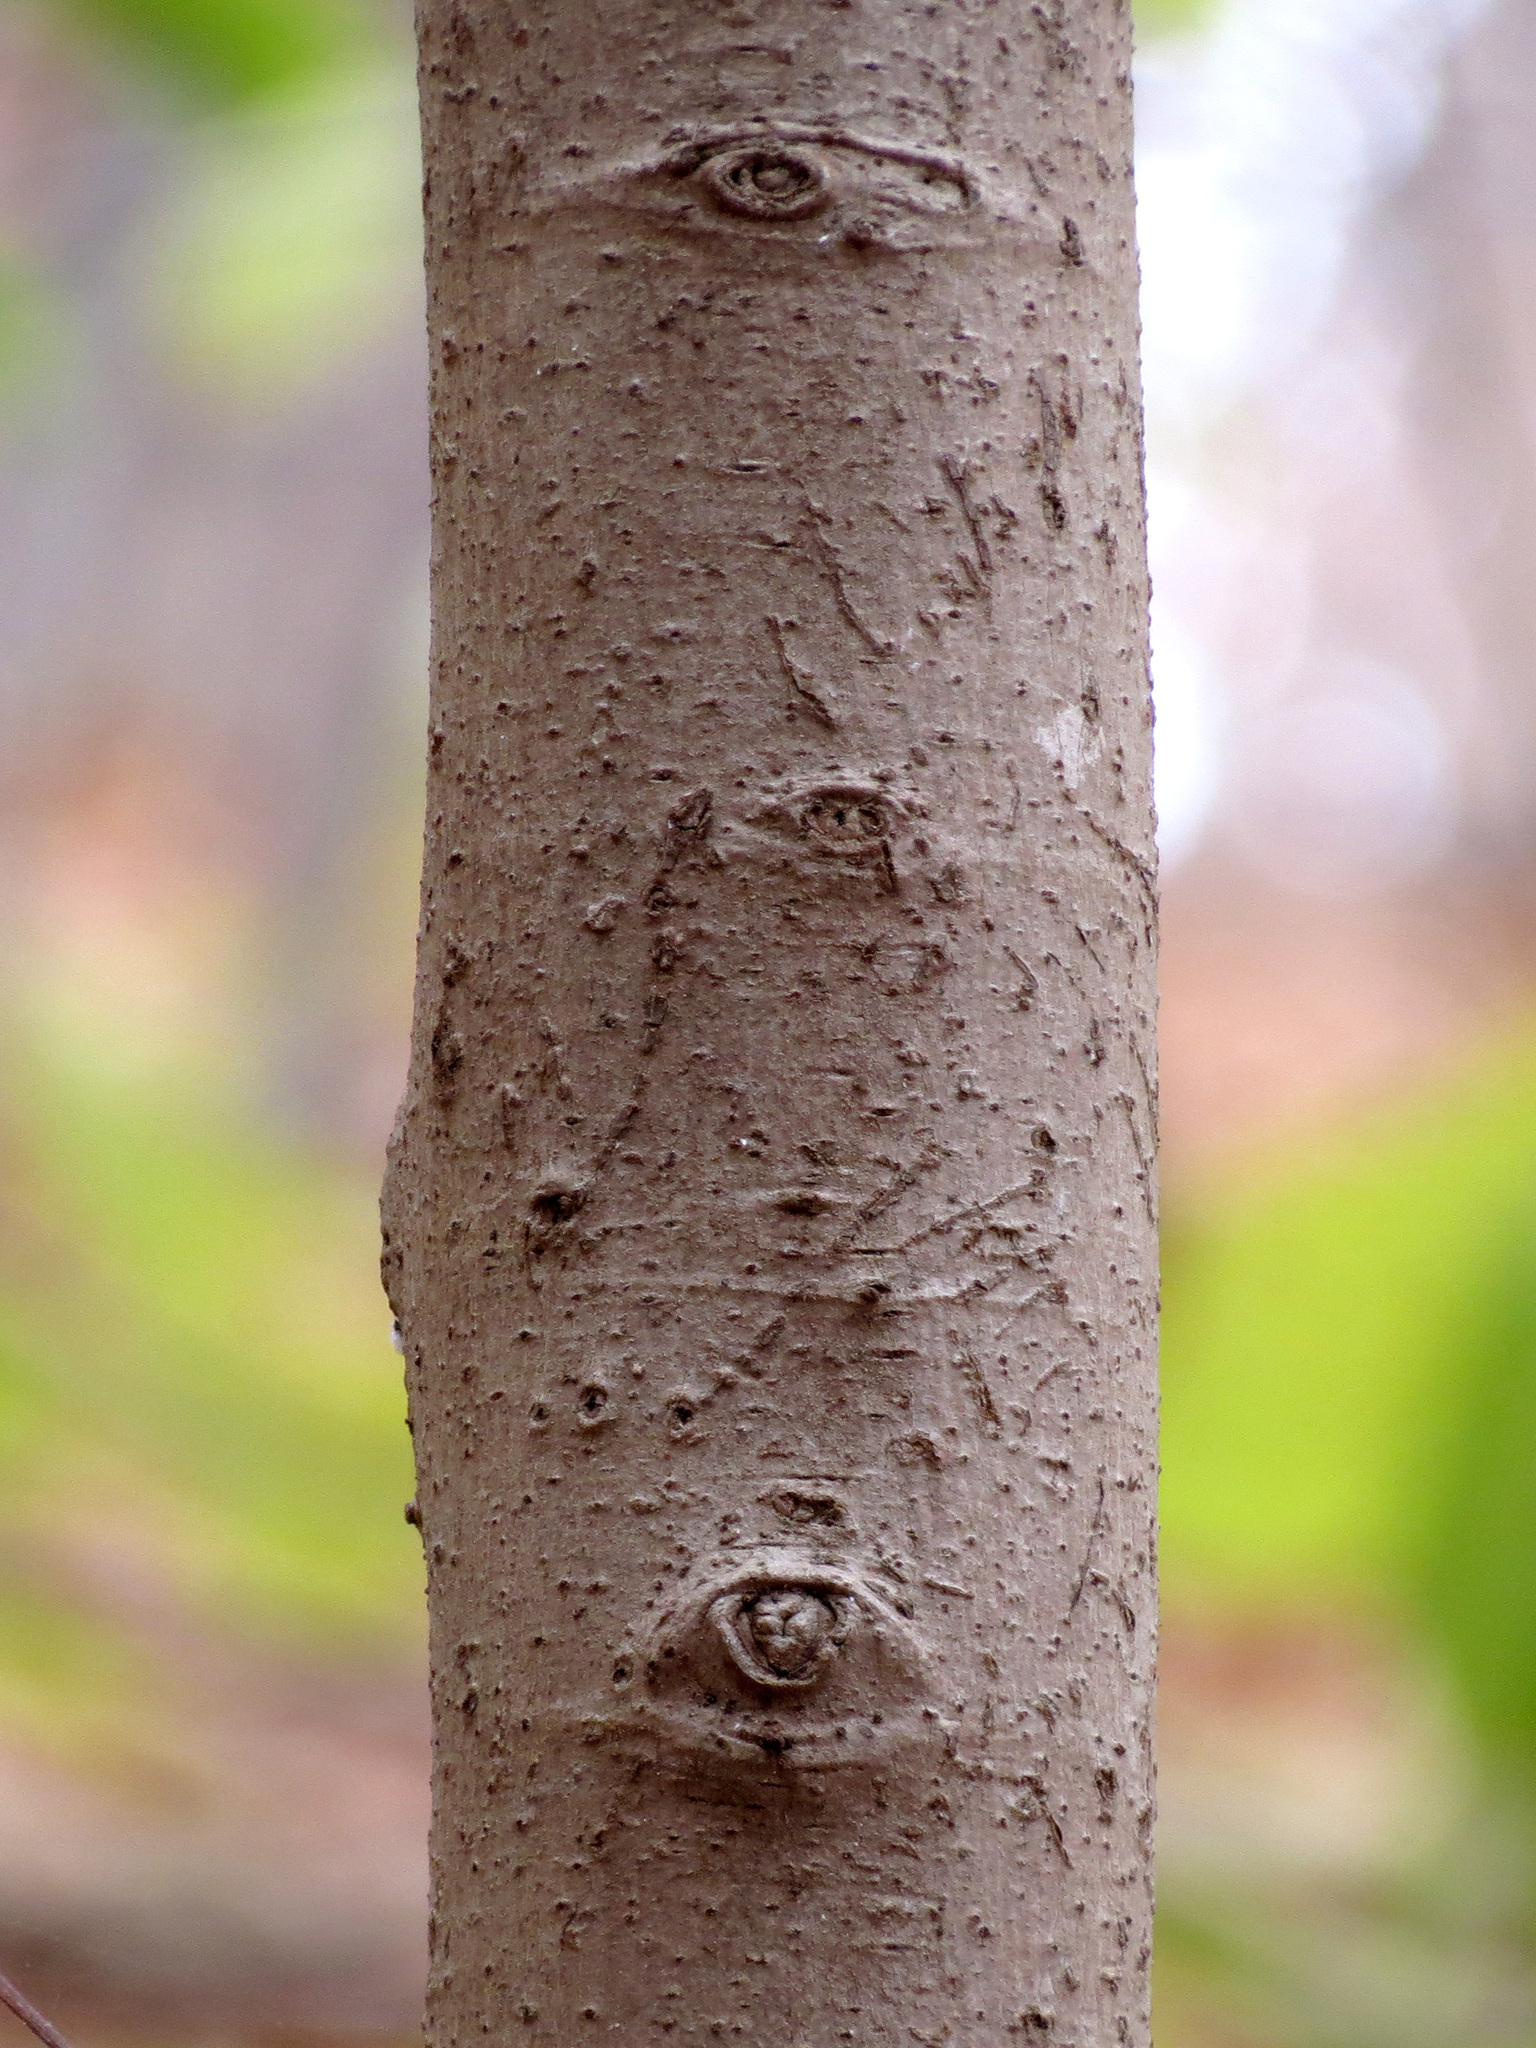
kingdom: Plantae
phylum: Tracheophyta
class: Magnoliopsida
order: Magnoliales
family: Annonaceae
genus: Asimina
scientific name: Asimina triloba
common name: Dog-banana
